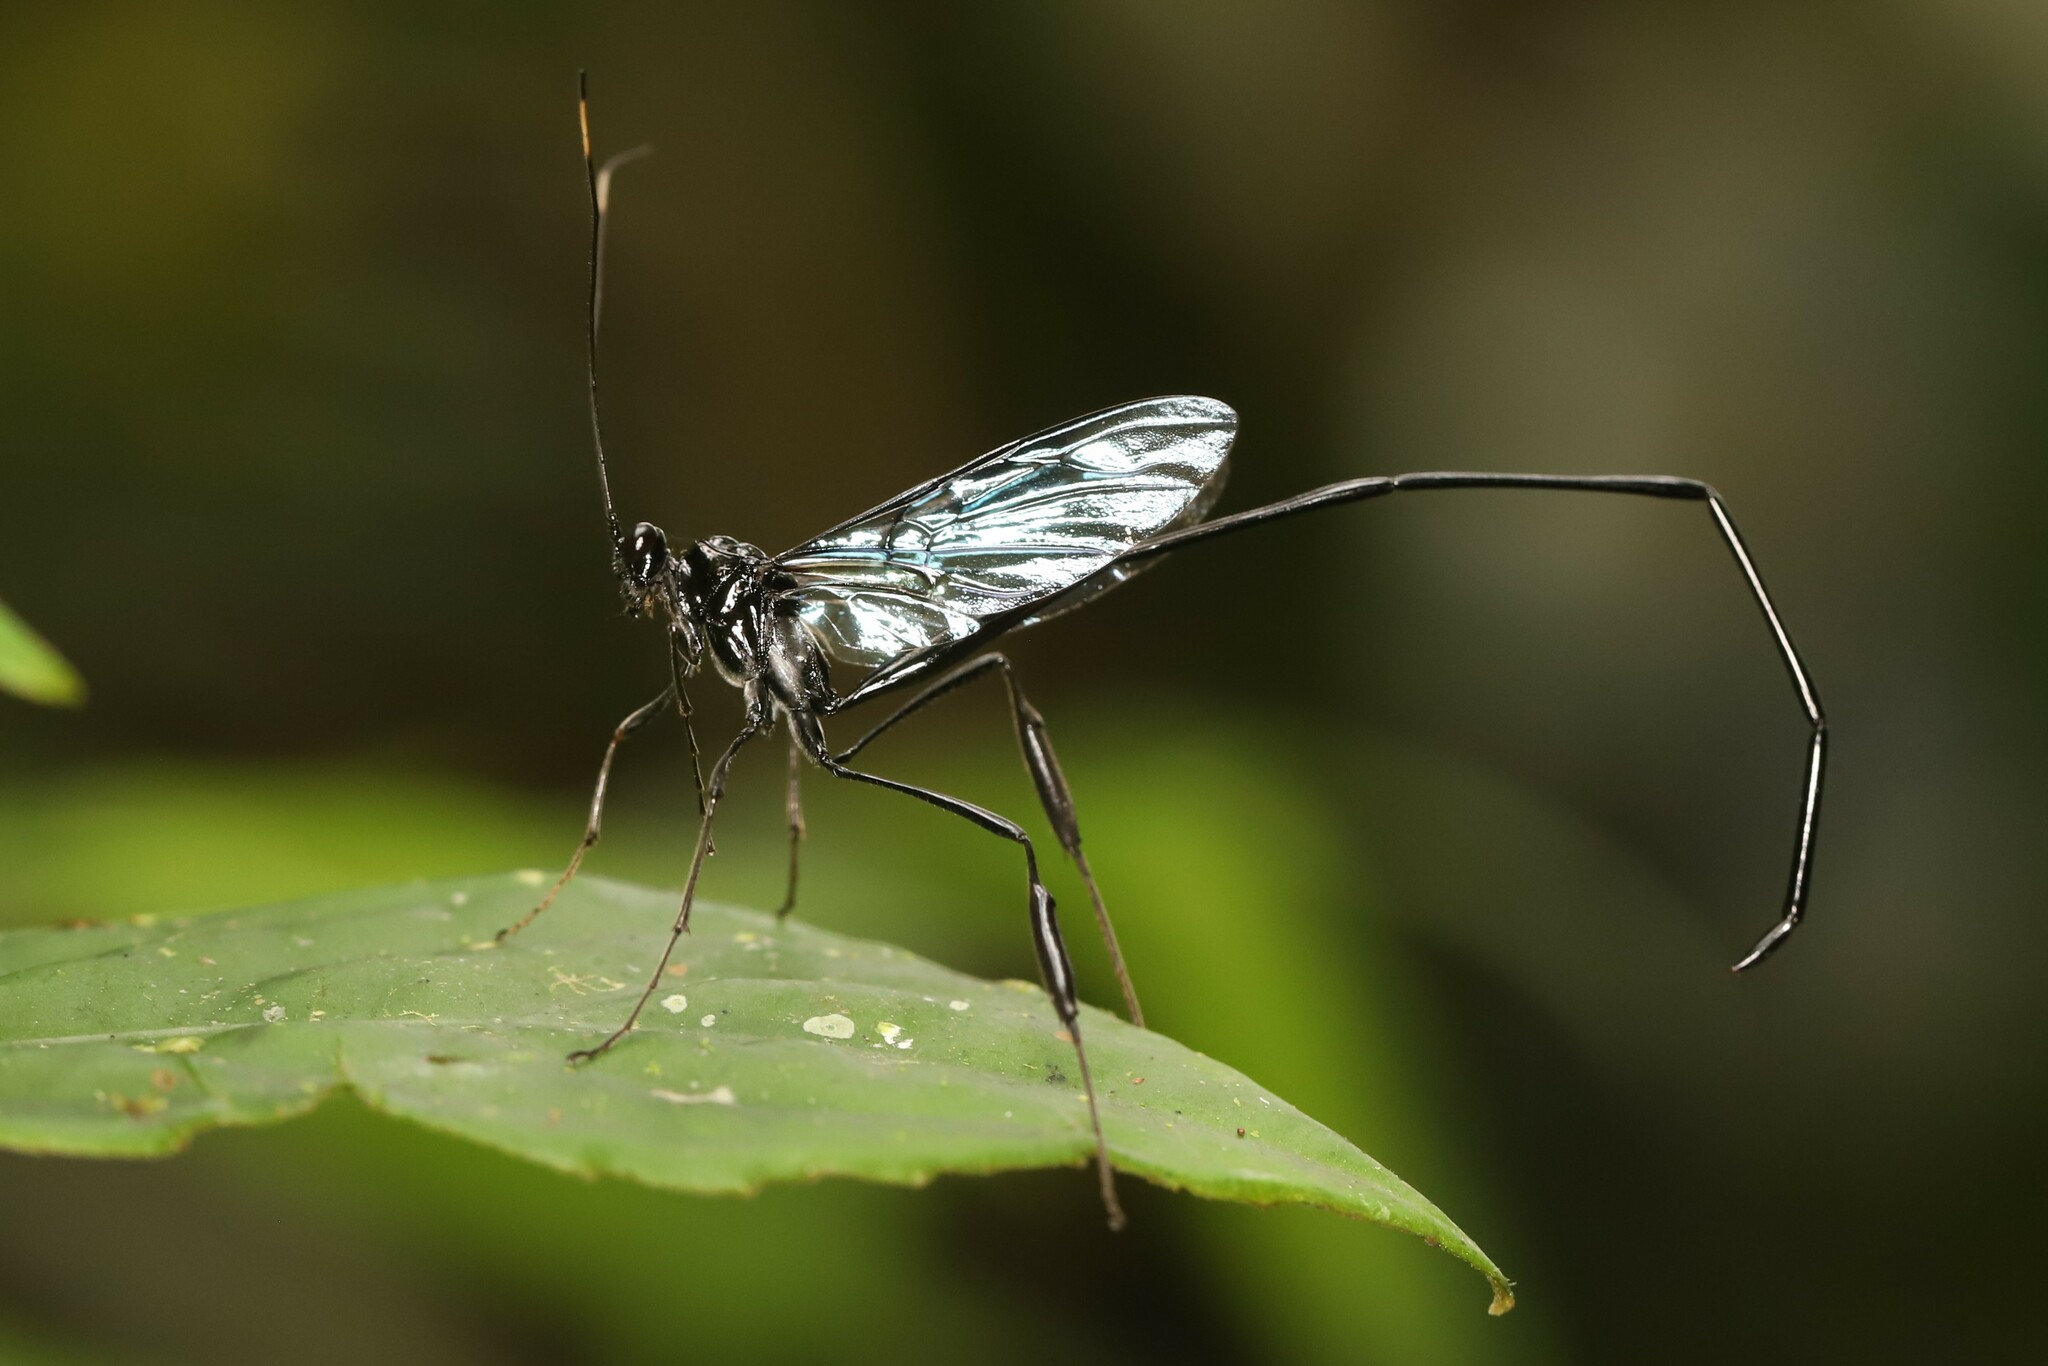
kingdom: Animalia
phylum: Arthropoda
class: Insecta
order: Hymenoptera
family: Pelecinidae
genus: Pelecinus
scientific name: Pelecinus polyturator
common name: American pelecinid wasp
